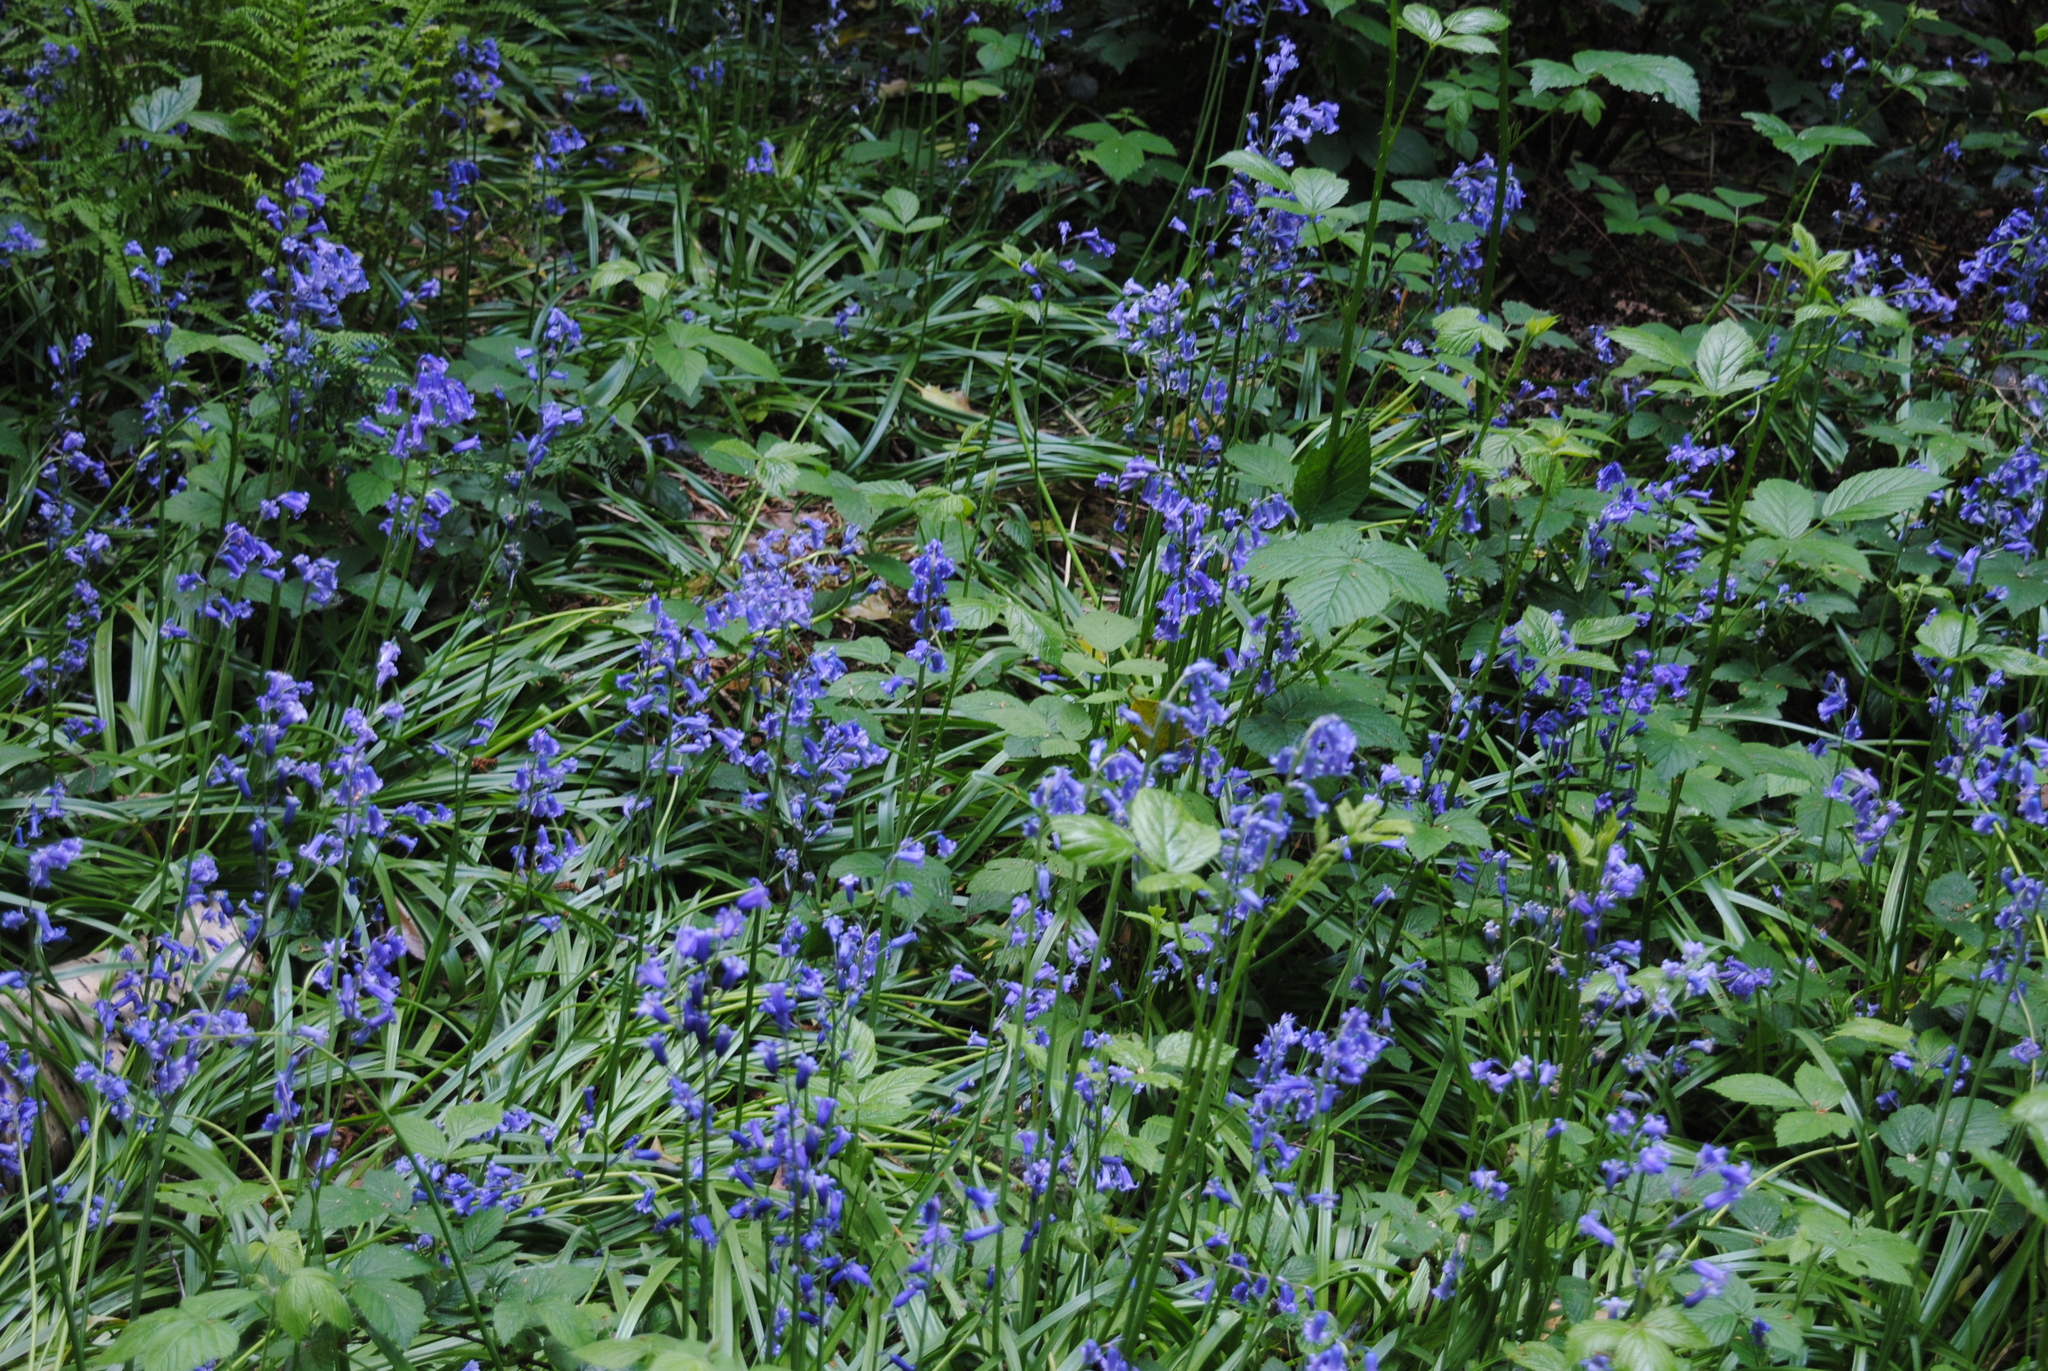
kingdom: Plantae
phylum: Tracheophyta
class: Liliopsida
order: Asparagales
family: Asparagaceae
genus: Hyacinthoides
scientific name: Hyacinthoides non-scripta
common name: Bluebell
